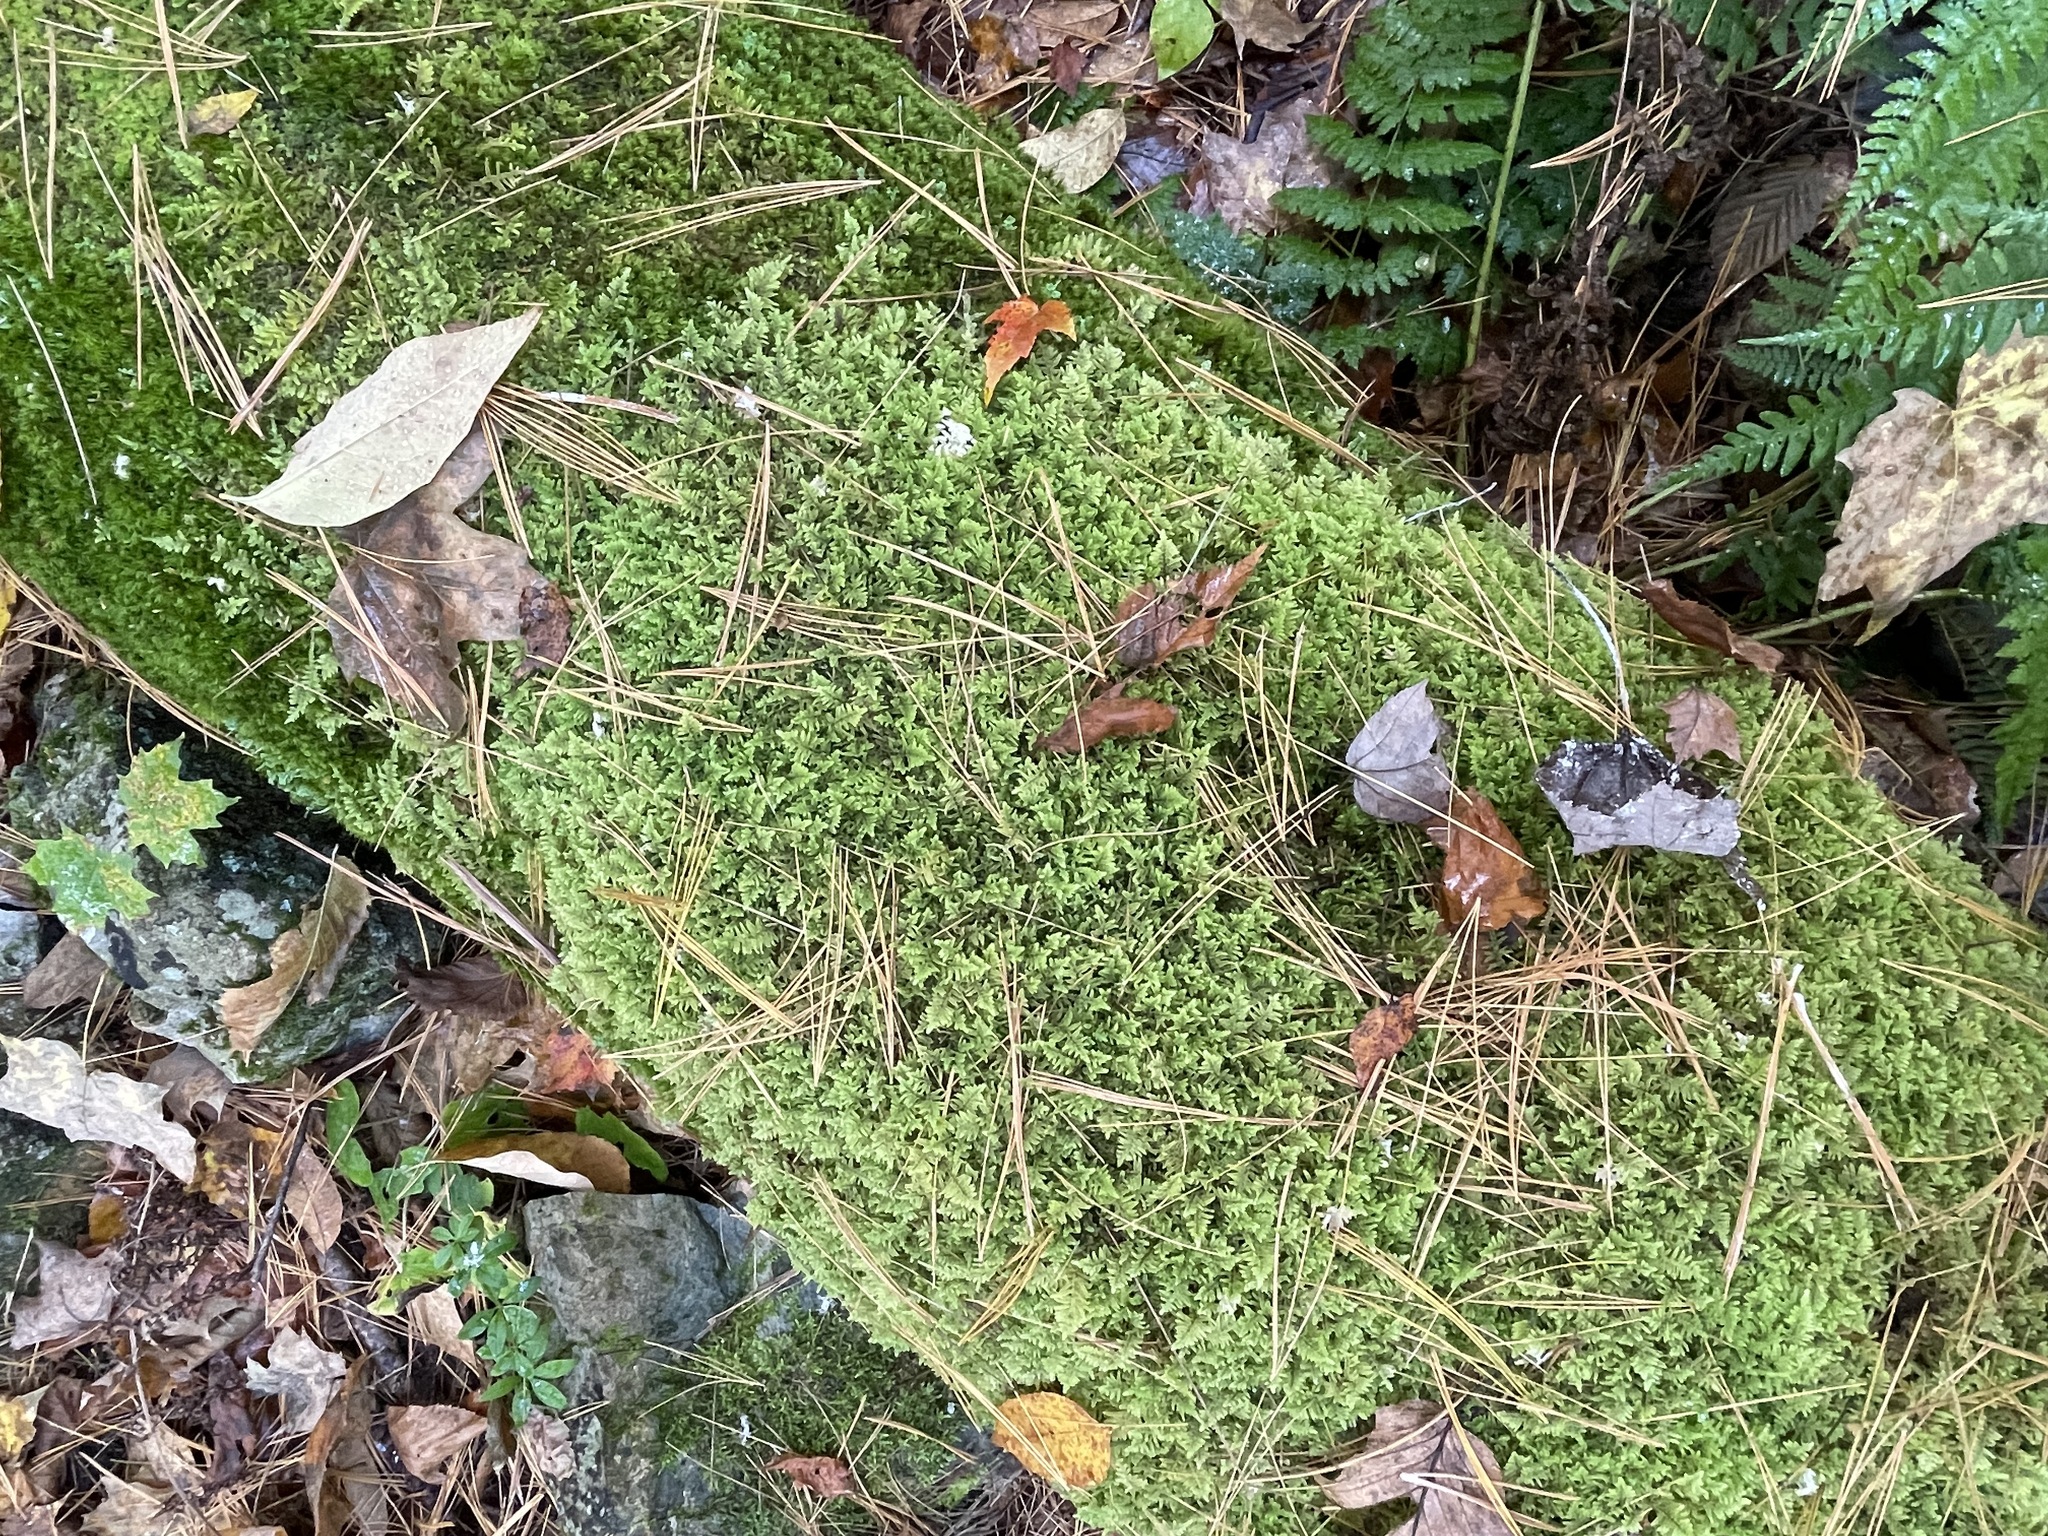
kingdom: Plantae
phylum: Bryophyta
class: Bryopsida
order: Hypnales
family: Callicladiaceae
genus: Callicladium
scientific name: Callicladium imponens
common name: Brocade moss
